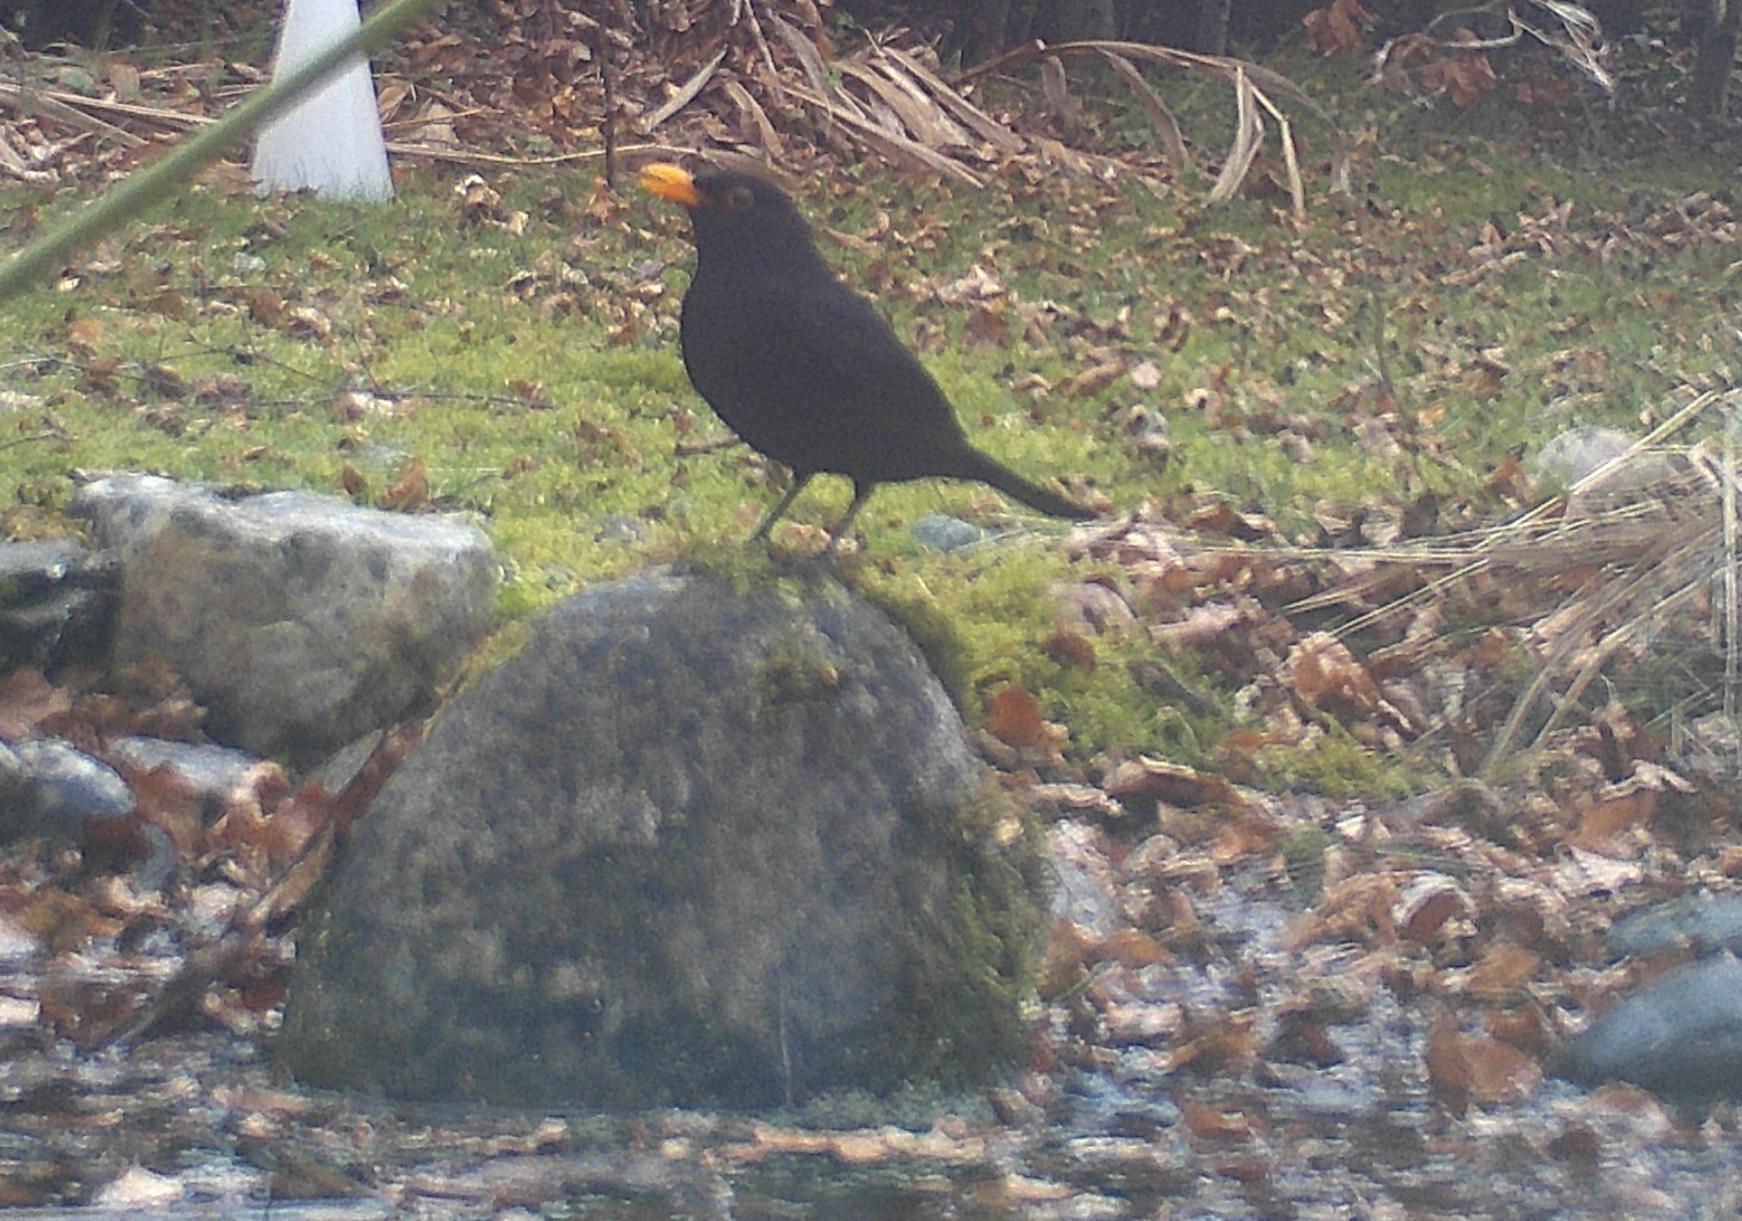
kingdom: Animalia
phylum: Chordata
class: Aves
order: Passeriformes
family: Turdidae
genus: Turdus
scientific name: Turdus merula
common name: Common blackbird
